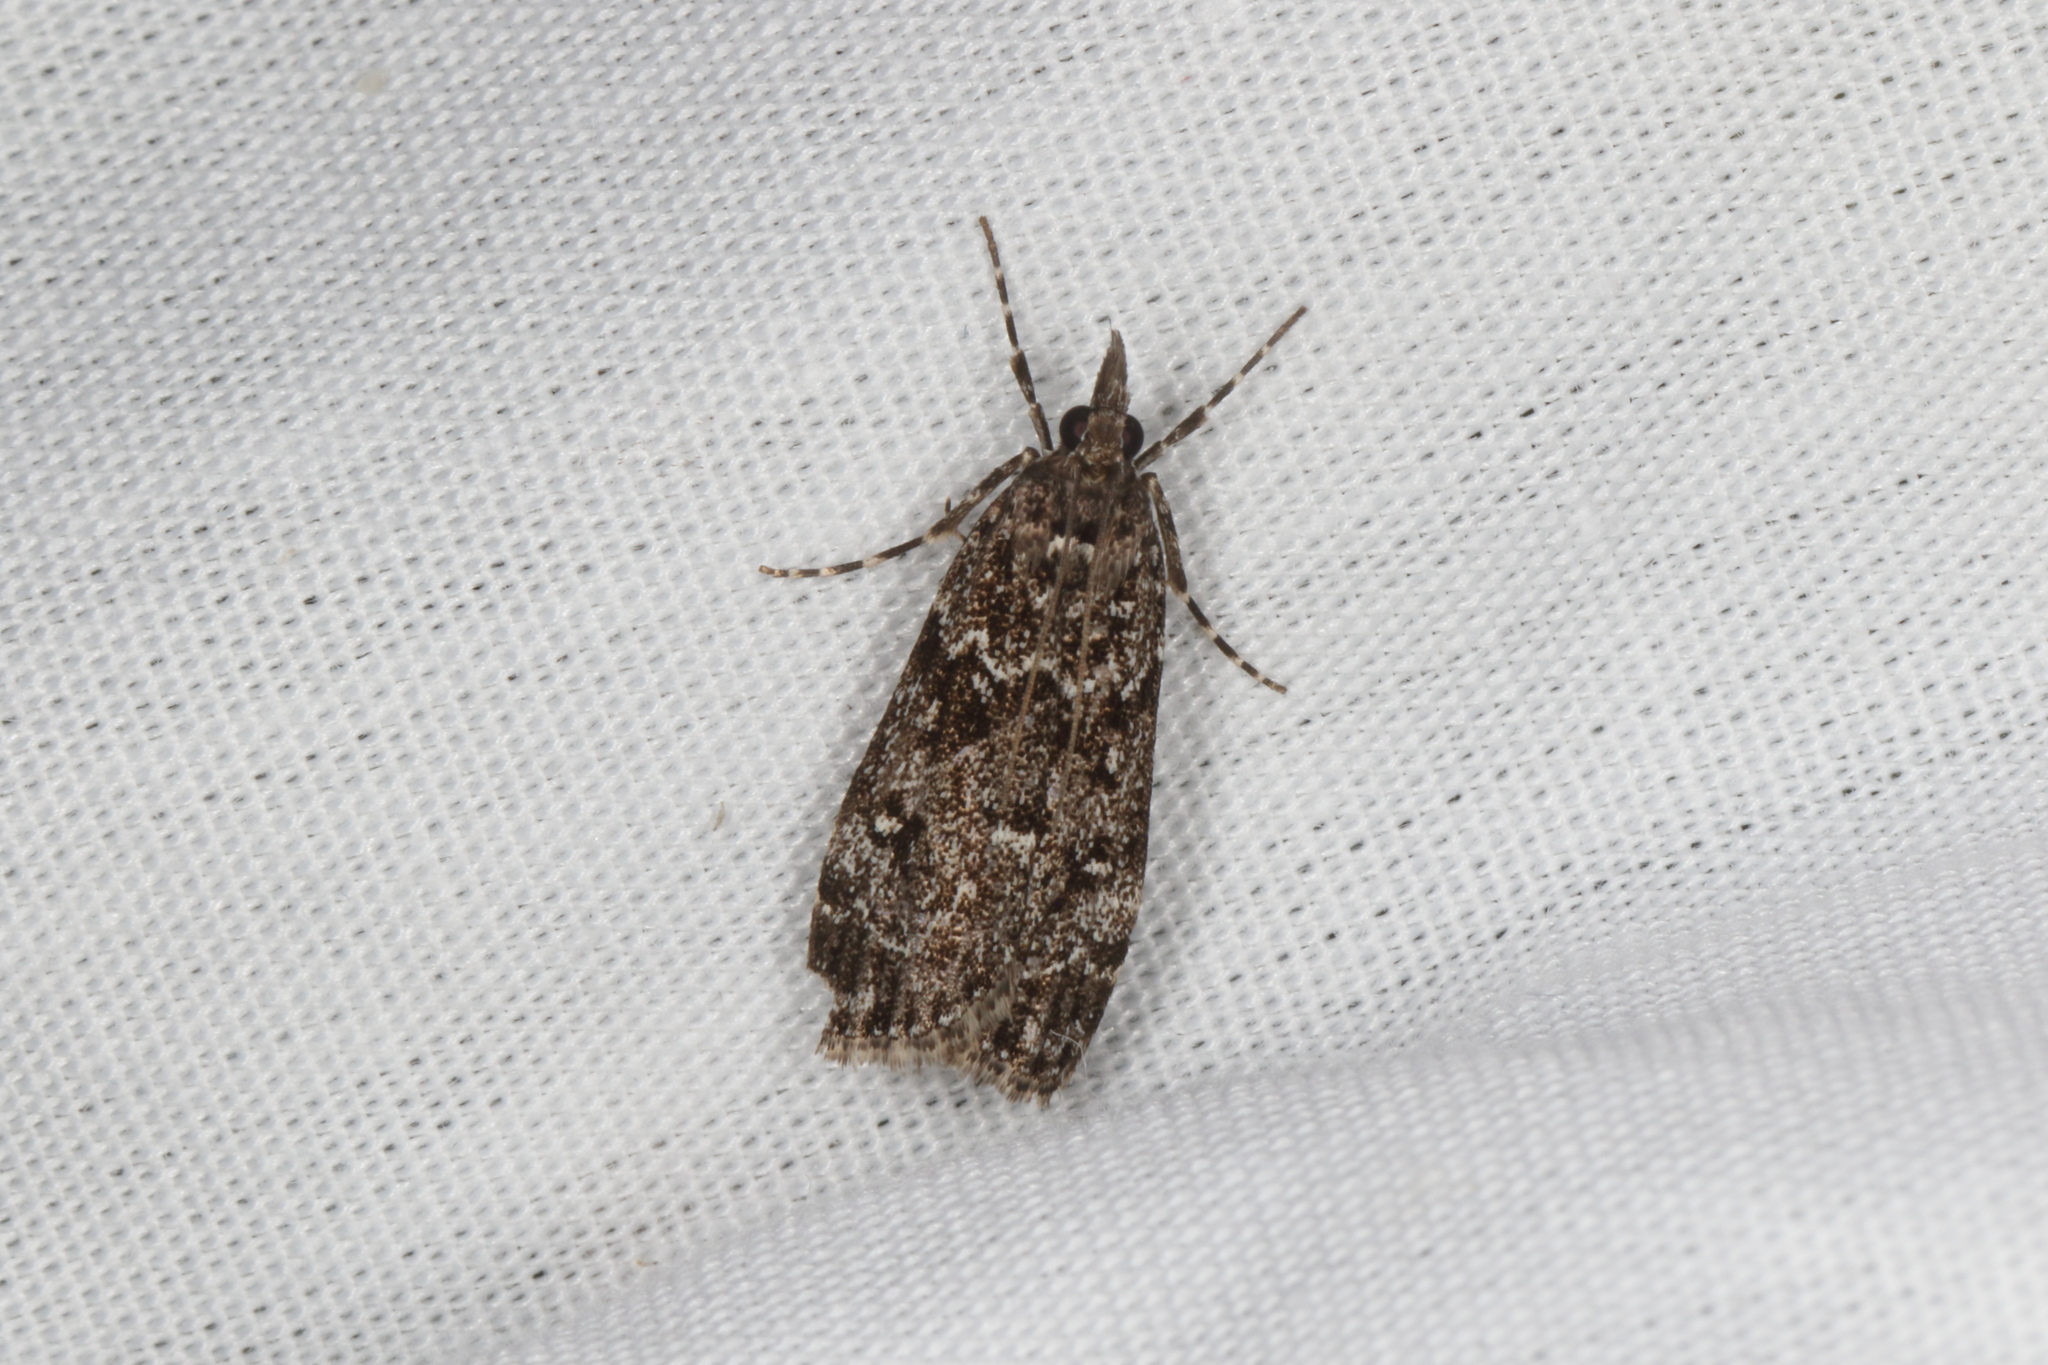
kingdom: Animalia
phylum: Arthropoda
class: Insecta
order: Lepidoptera
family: Crambidae
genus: Eudonia
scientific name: Eudonia philerga
